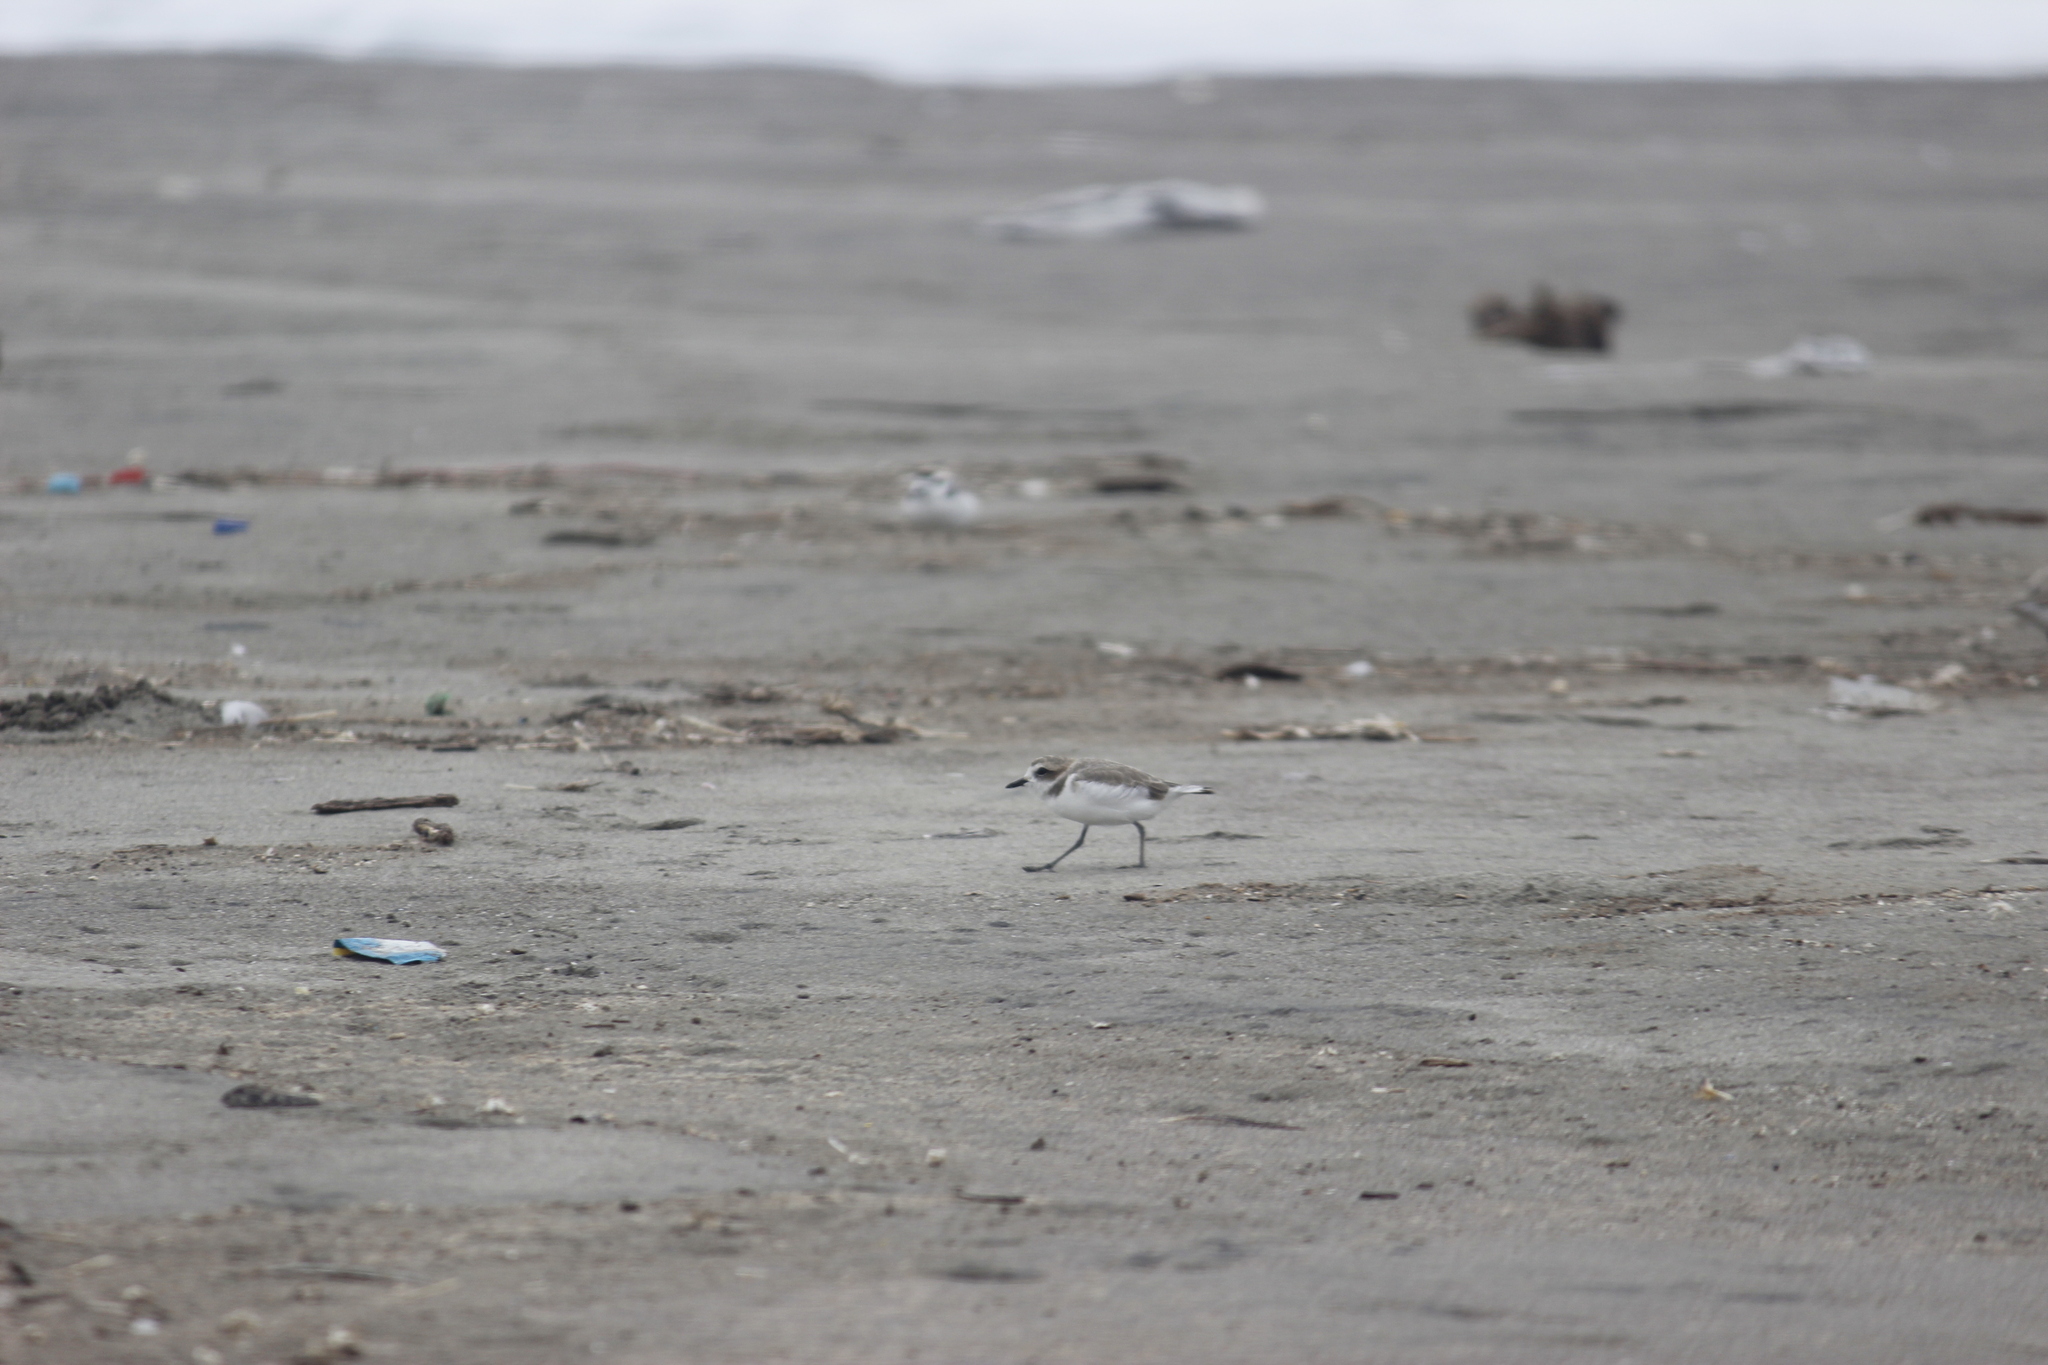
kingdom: Animalia
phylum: Chordata
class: Aves
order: Charadriiformes
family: Charadriidae
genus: Anarhynchus
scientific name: Anarhynchus
